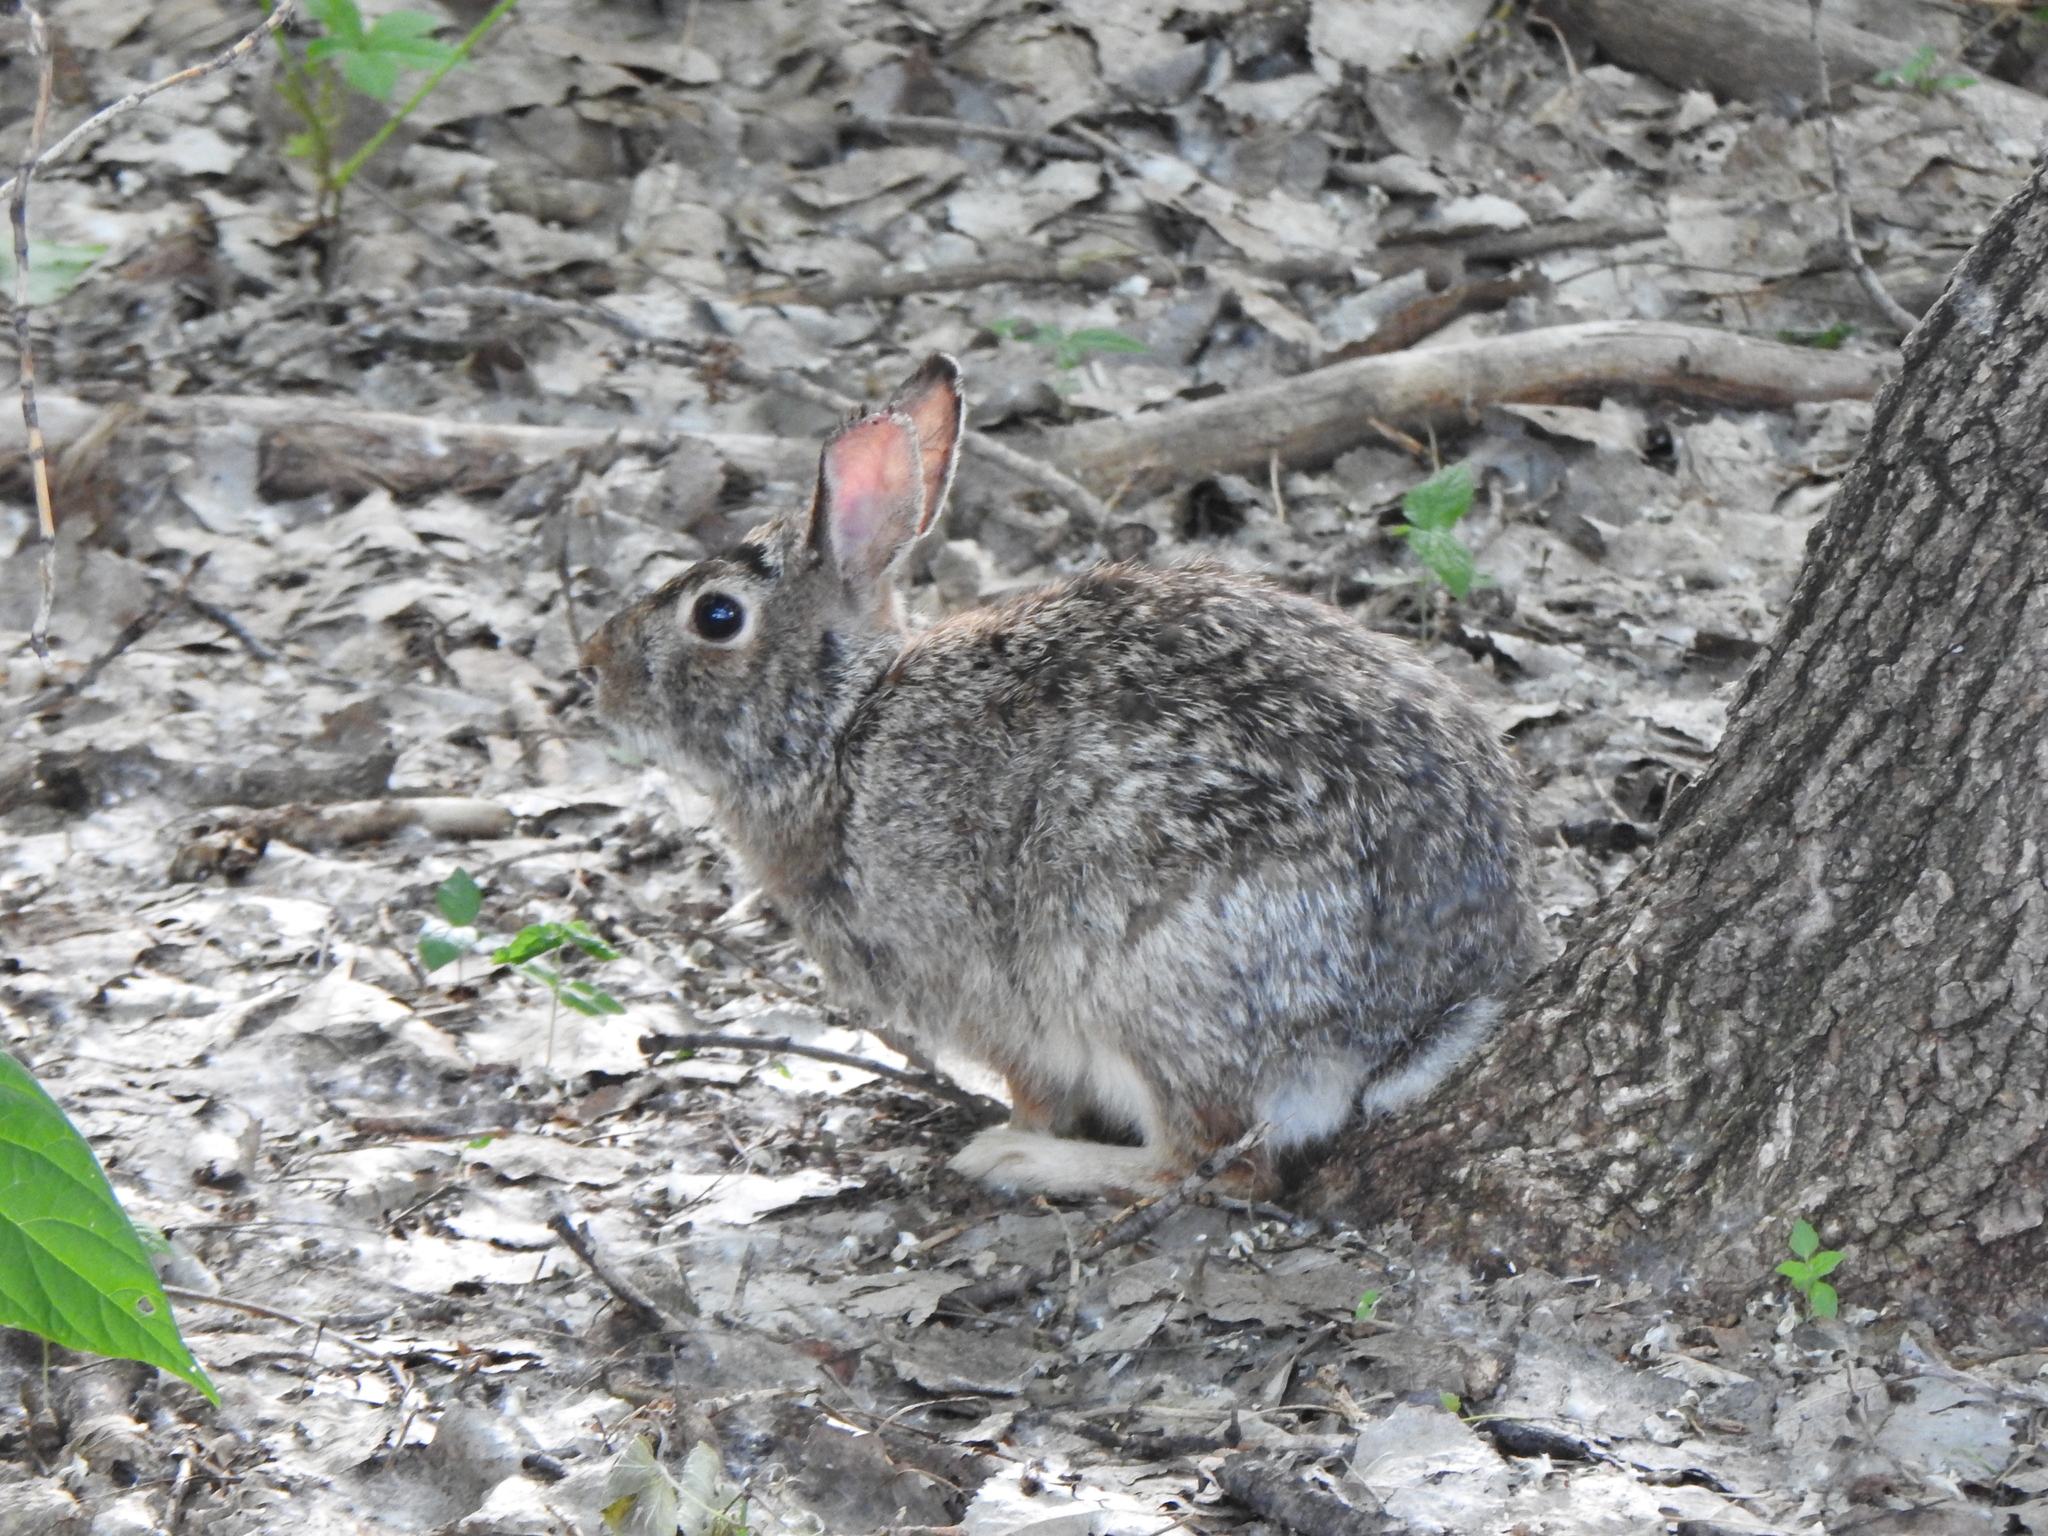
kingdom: Animalia
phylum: Chordata
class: Mammalia
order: Lagomorpha
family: Leporidae
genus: Sylvilagus
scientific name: Sylvilagus floridanus
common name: Eastern cottontail
